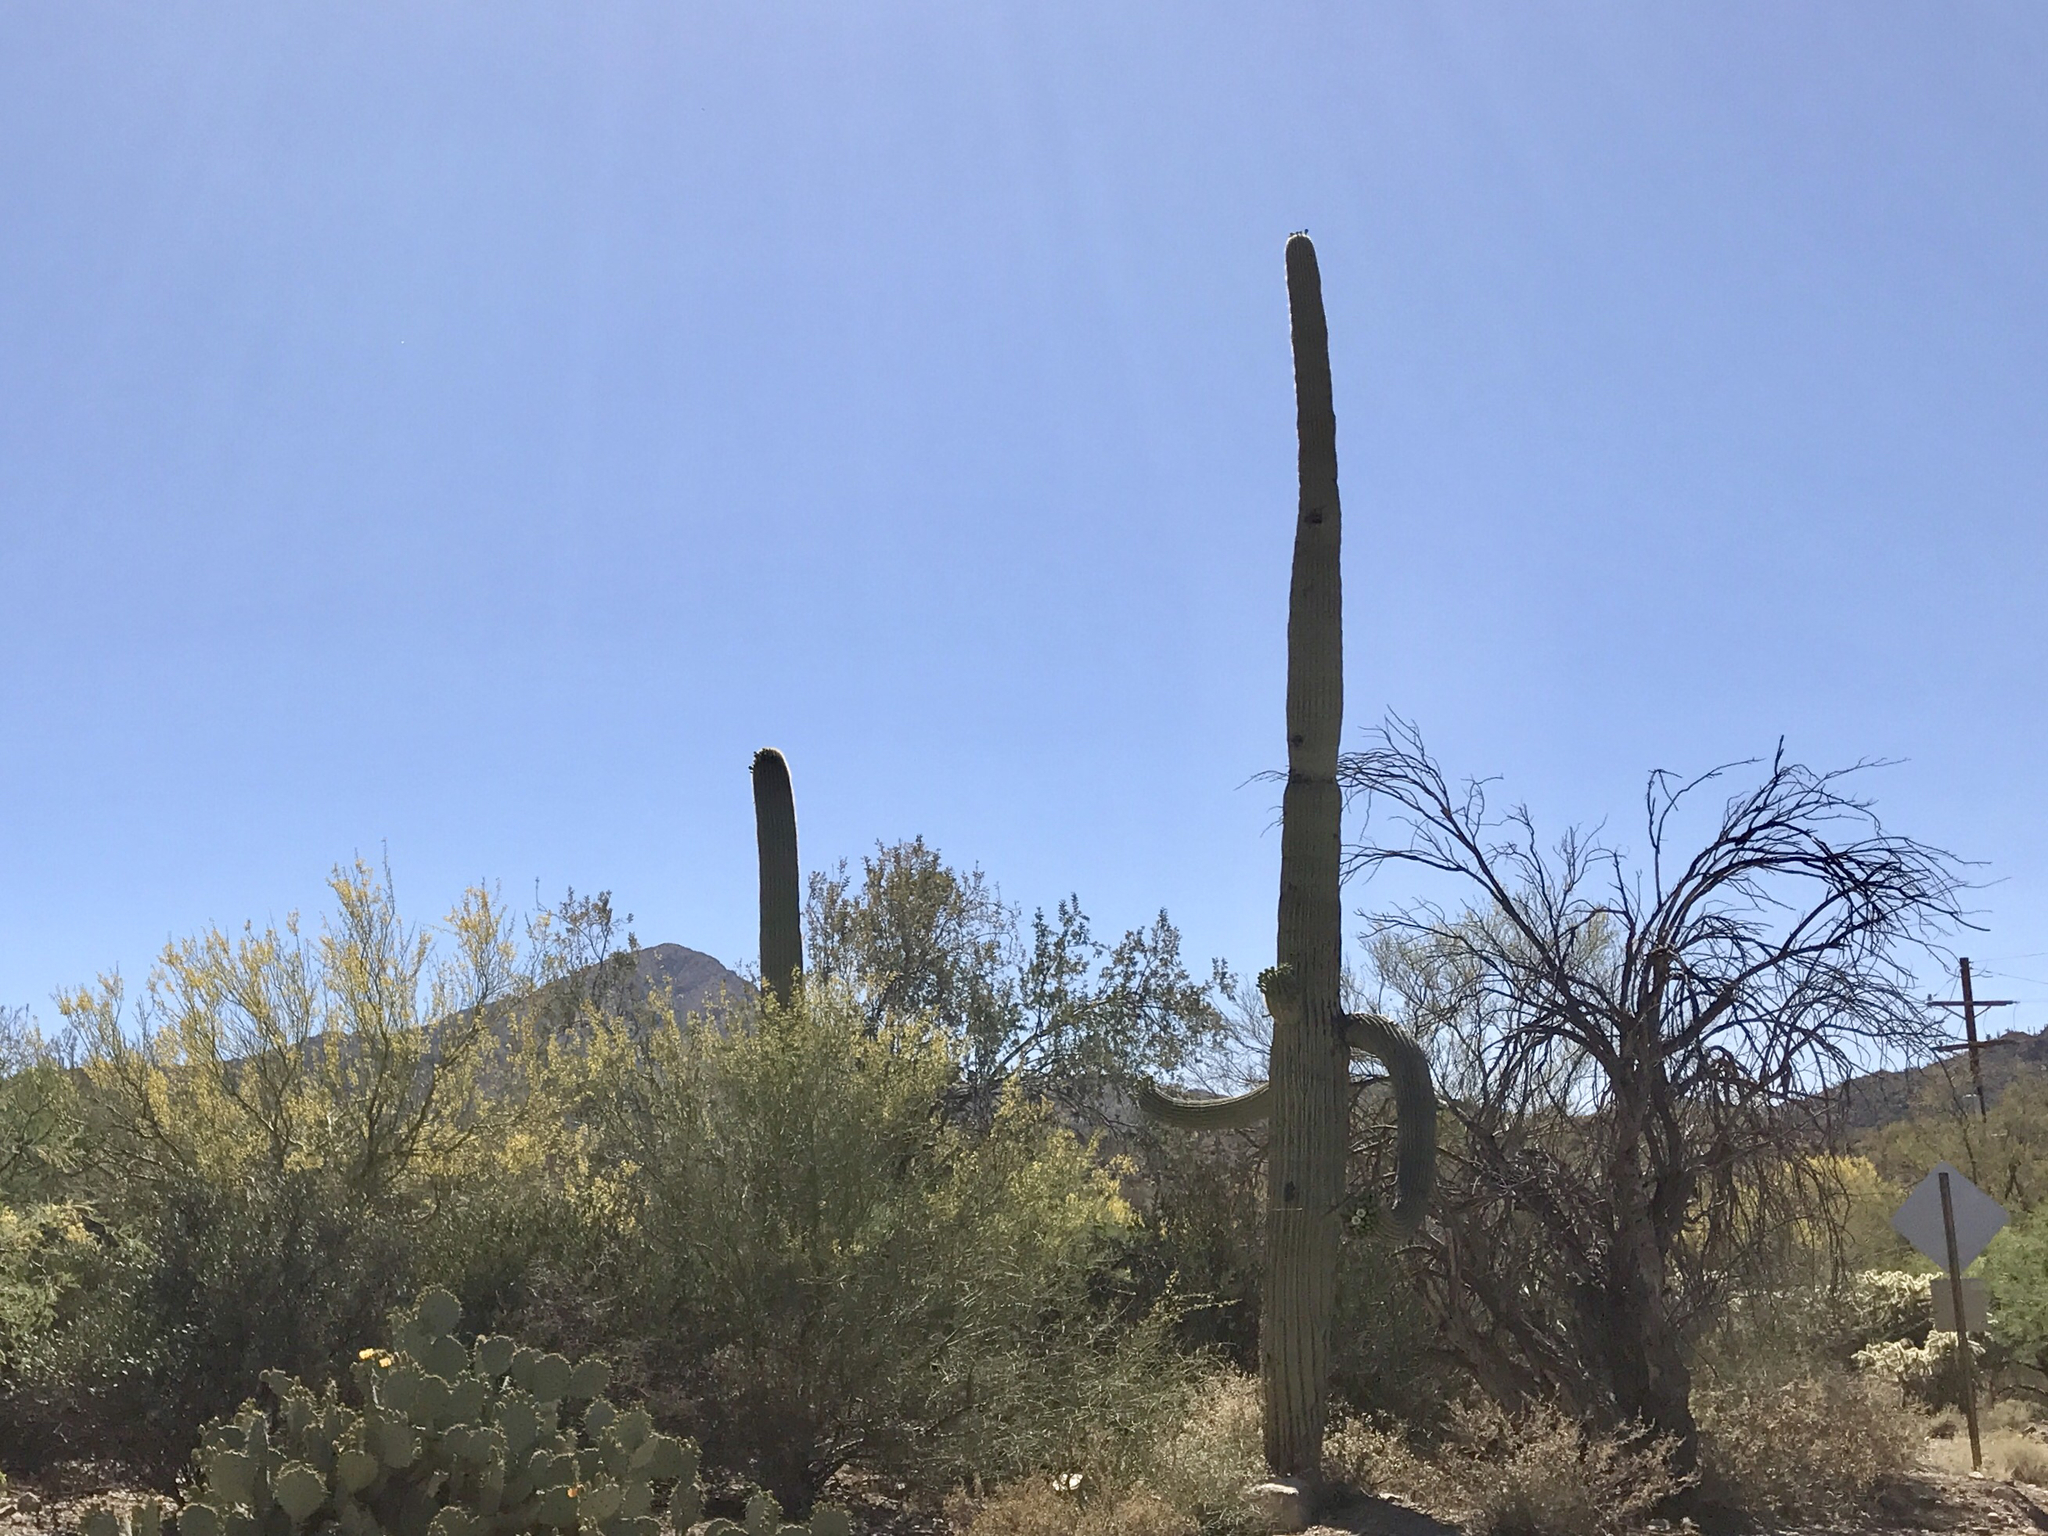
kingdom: Plantae
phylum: Tracheophyta
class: Magnoliopsida
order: Caryophyllales
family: Cactaceae
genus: Carnegiea
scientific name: Carnegiea gigantea
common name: Saguaro
